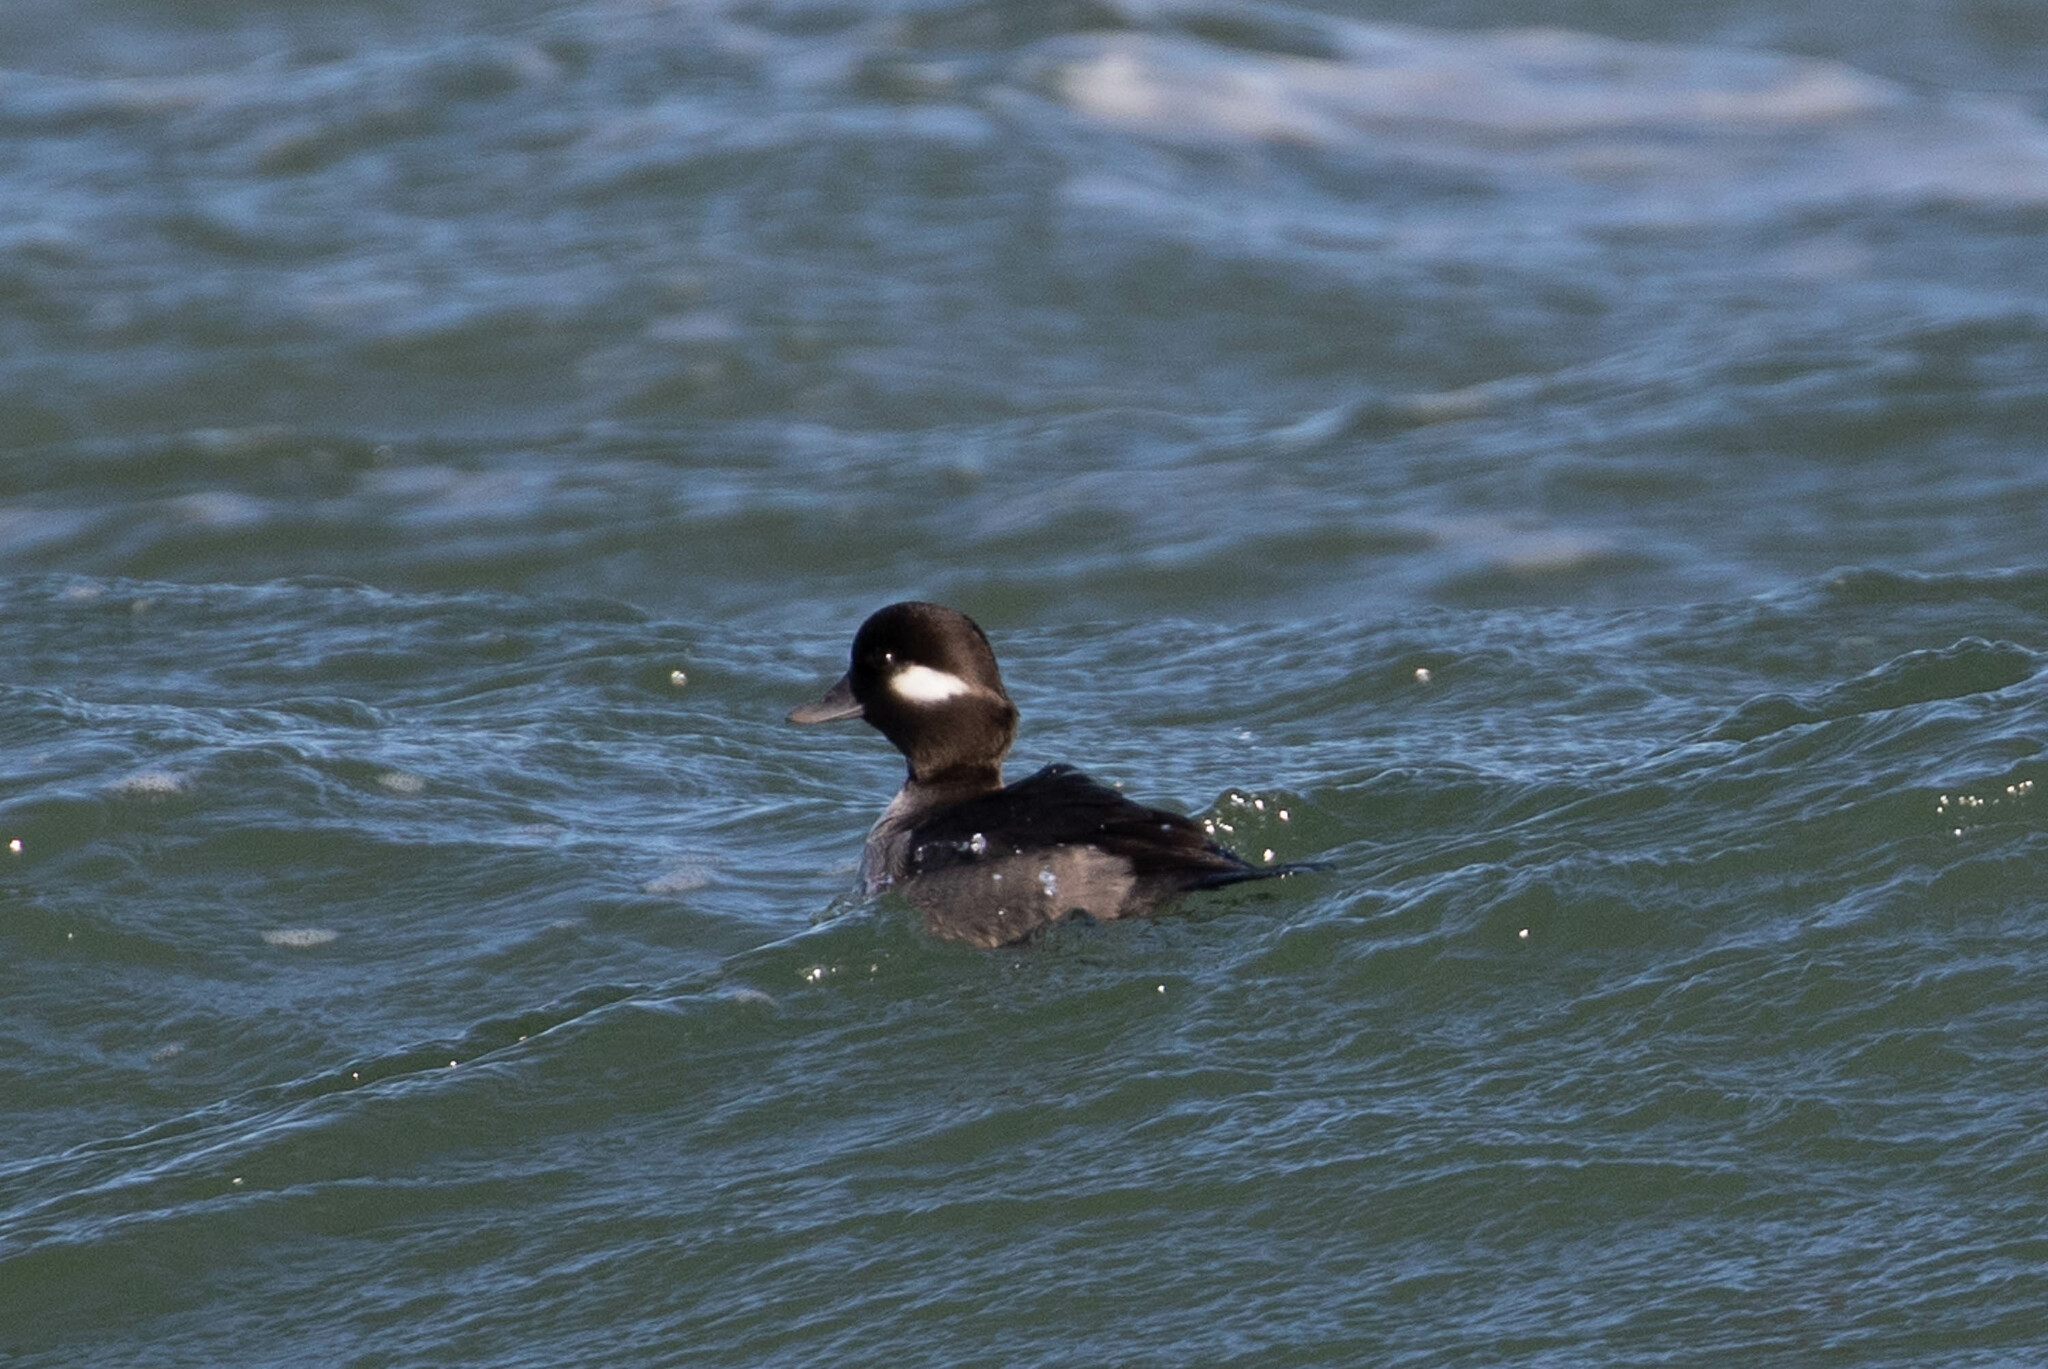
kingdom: Animalia
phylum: Chordata
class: Aves
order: Anseriformes
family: Anatidae
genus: Bucephala
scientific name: Bucephala albeola
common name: Bufflehead
